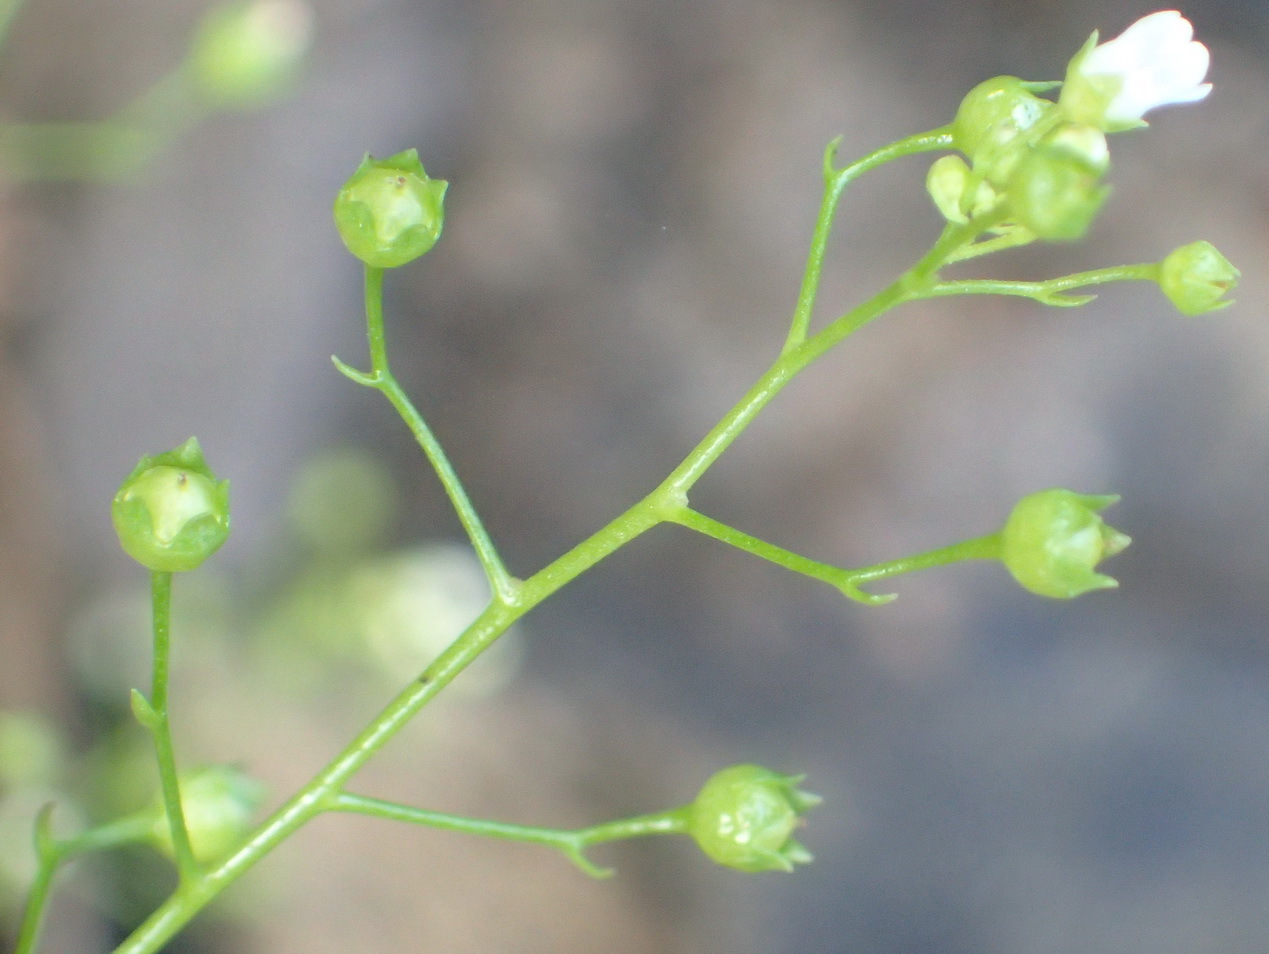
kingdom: Plantae
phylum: Tracheophyta
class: Magnoliopsida
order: Ericales
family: Primulaceae
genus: Samolus
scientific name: Samolus valerandi
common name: Brookweed
